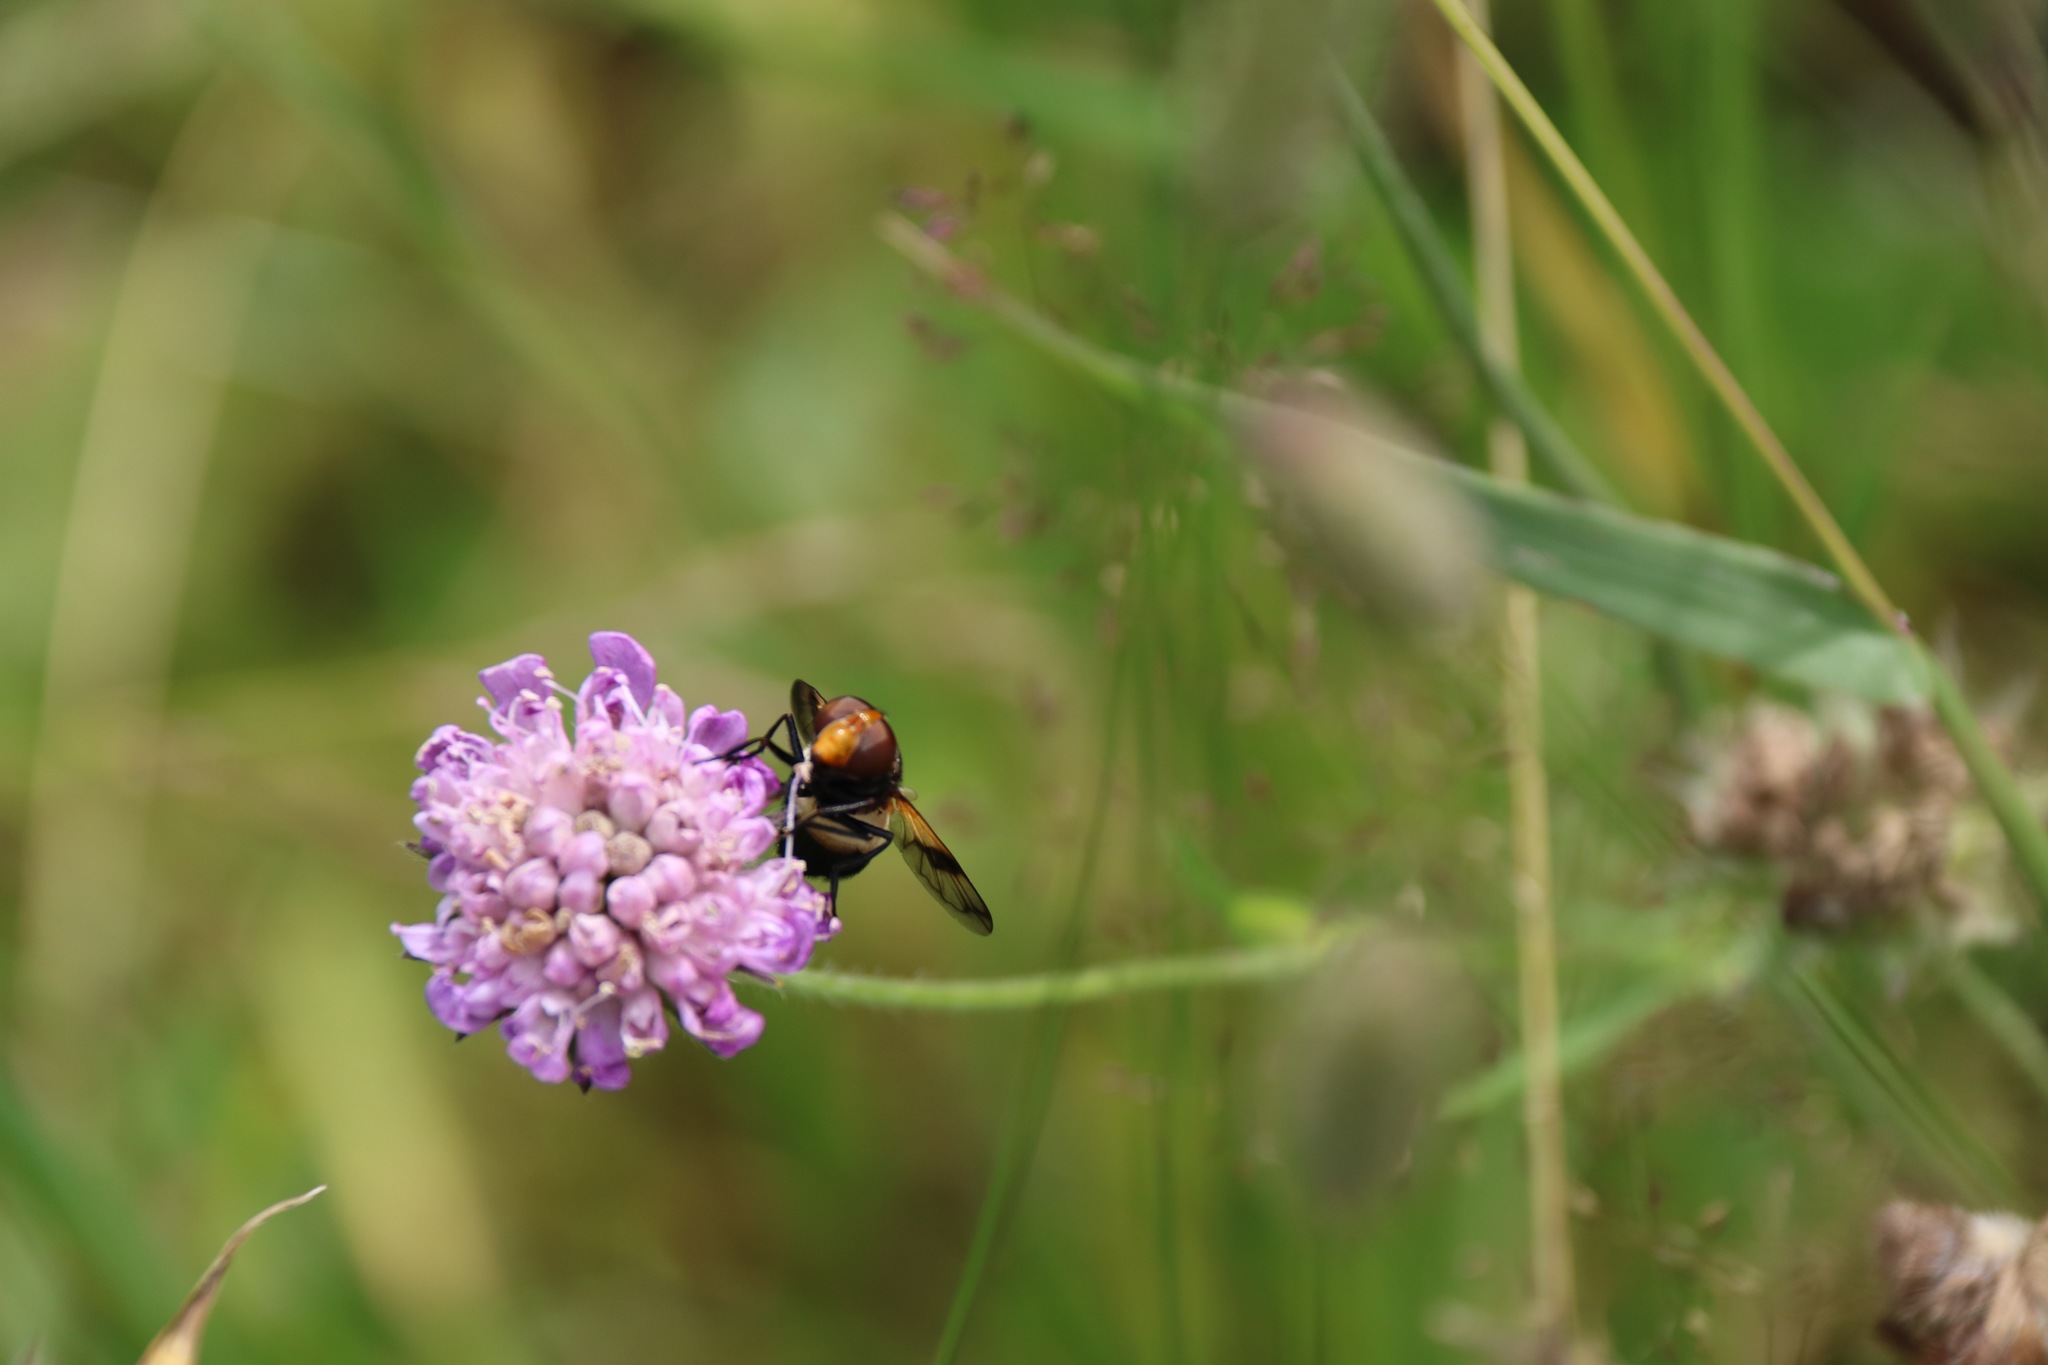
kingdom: Animalia
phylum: Arthropoda
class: Insecta
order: Diptera
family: Syrphidae
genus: Volucella
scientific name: Volucella pellucens
